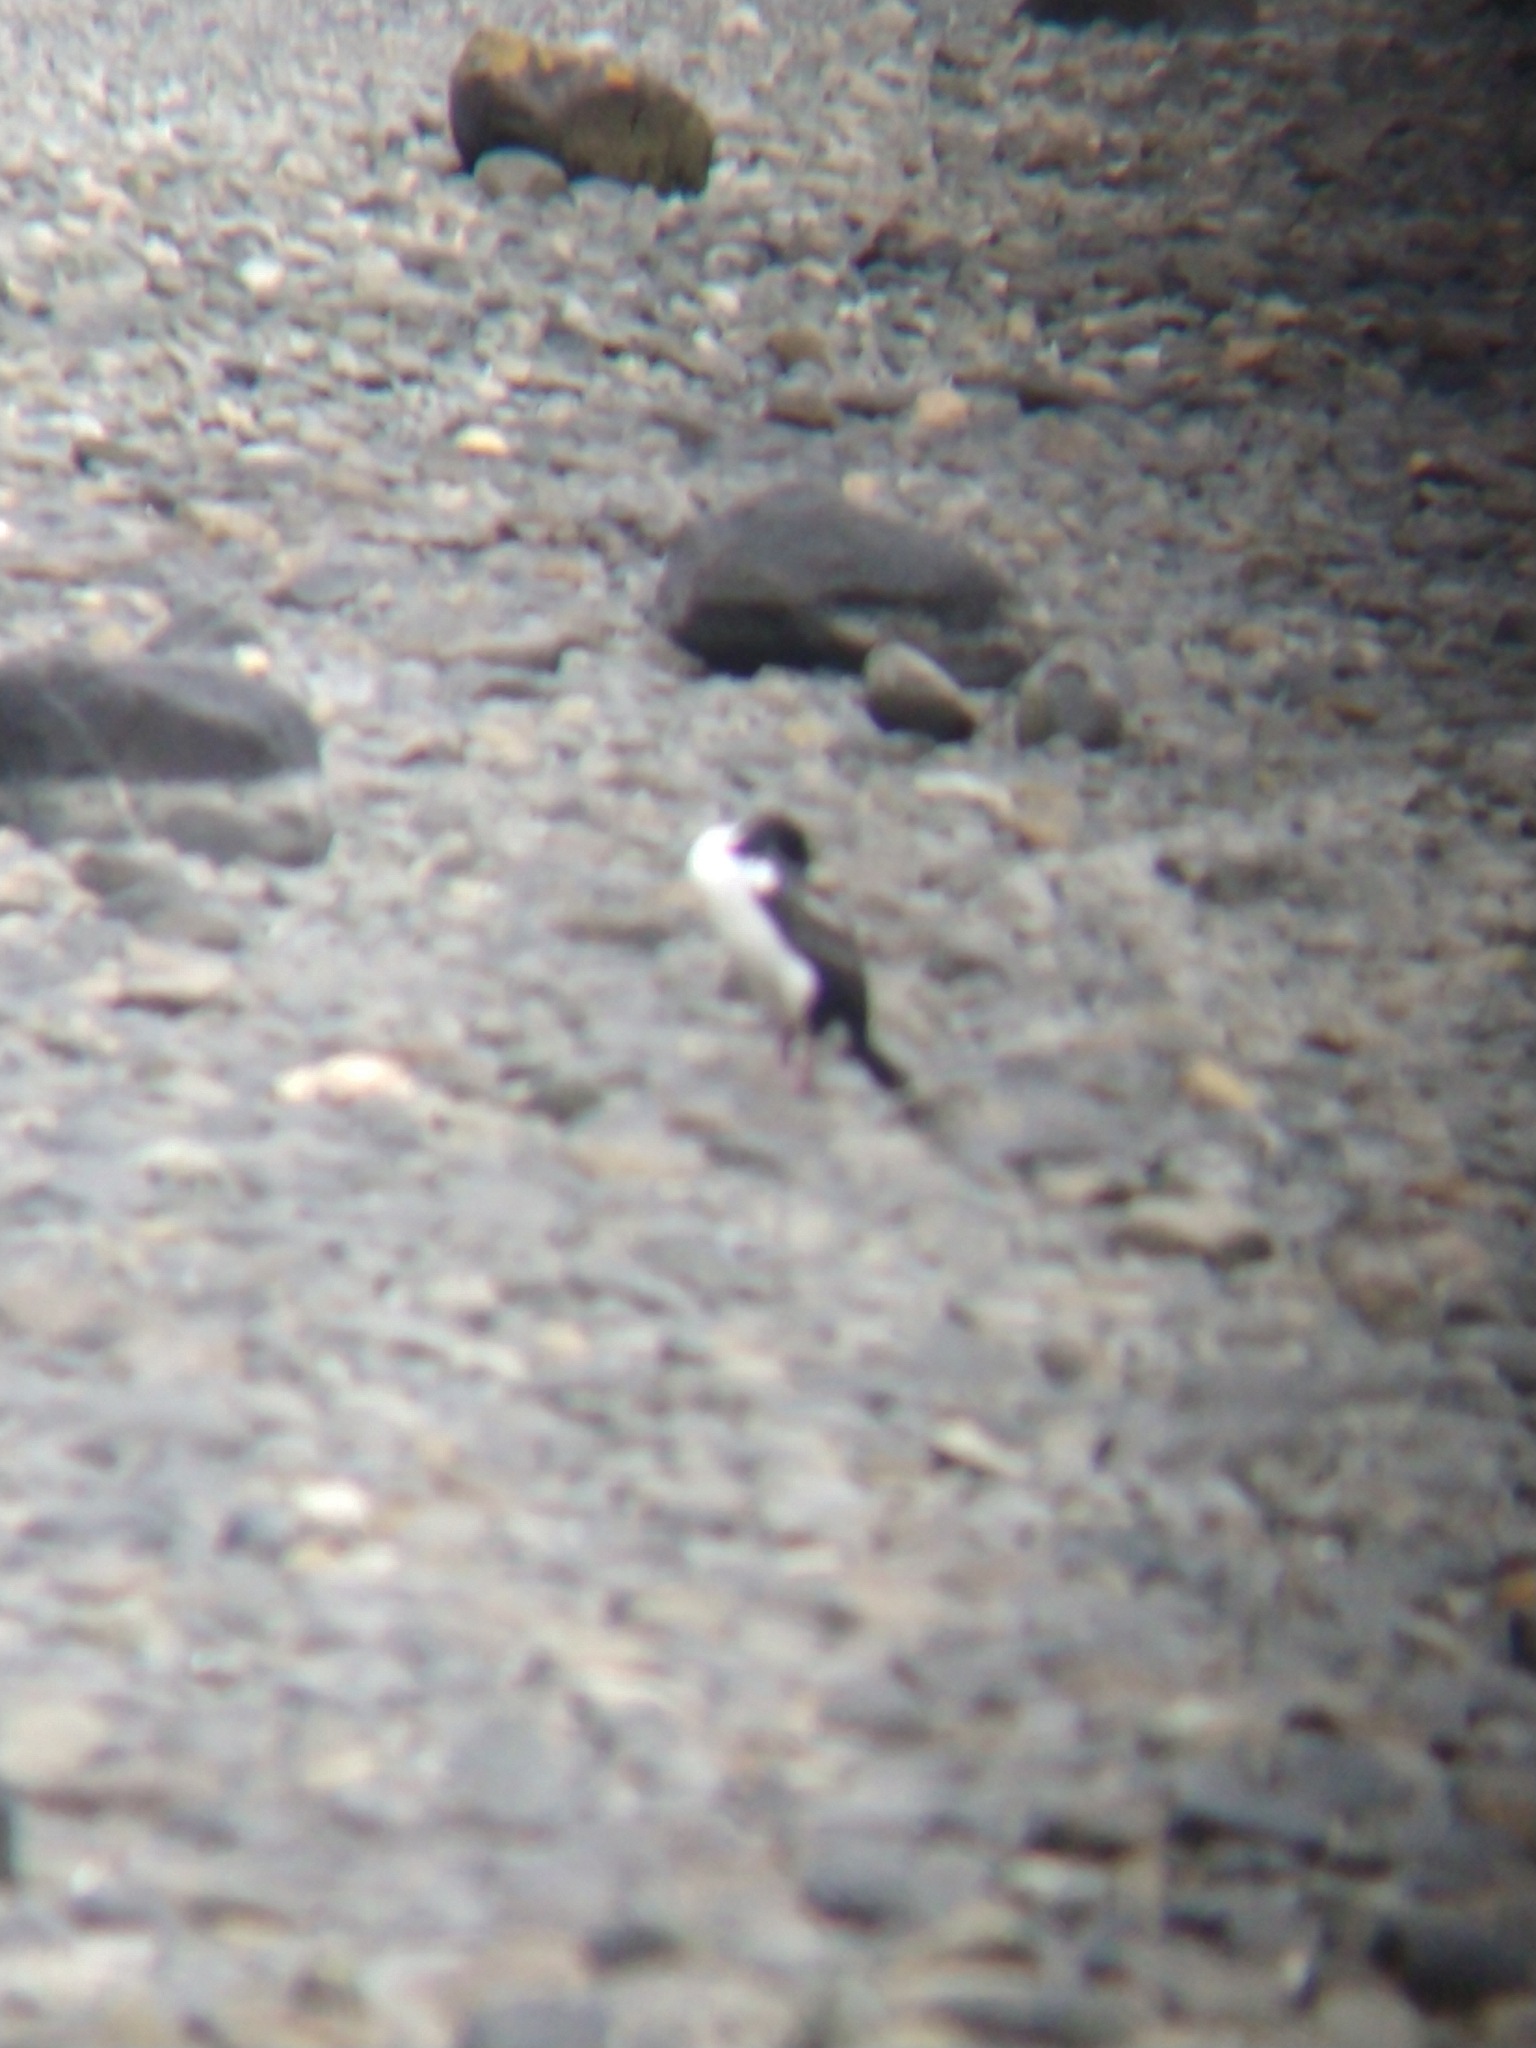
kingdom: Animalia
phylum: Chordata
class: Aves
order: Suliformes
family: Phalacrocoracidae
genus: Leucocarbo
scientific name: Leucocarbo atriceps
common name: Imperial shag
